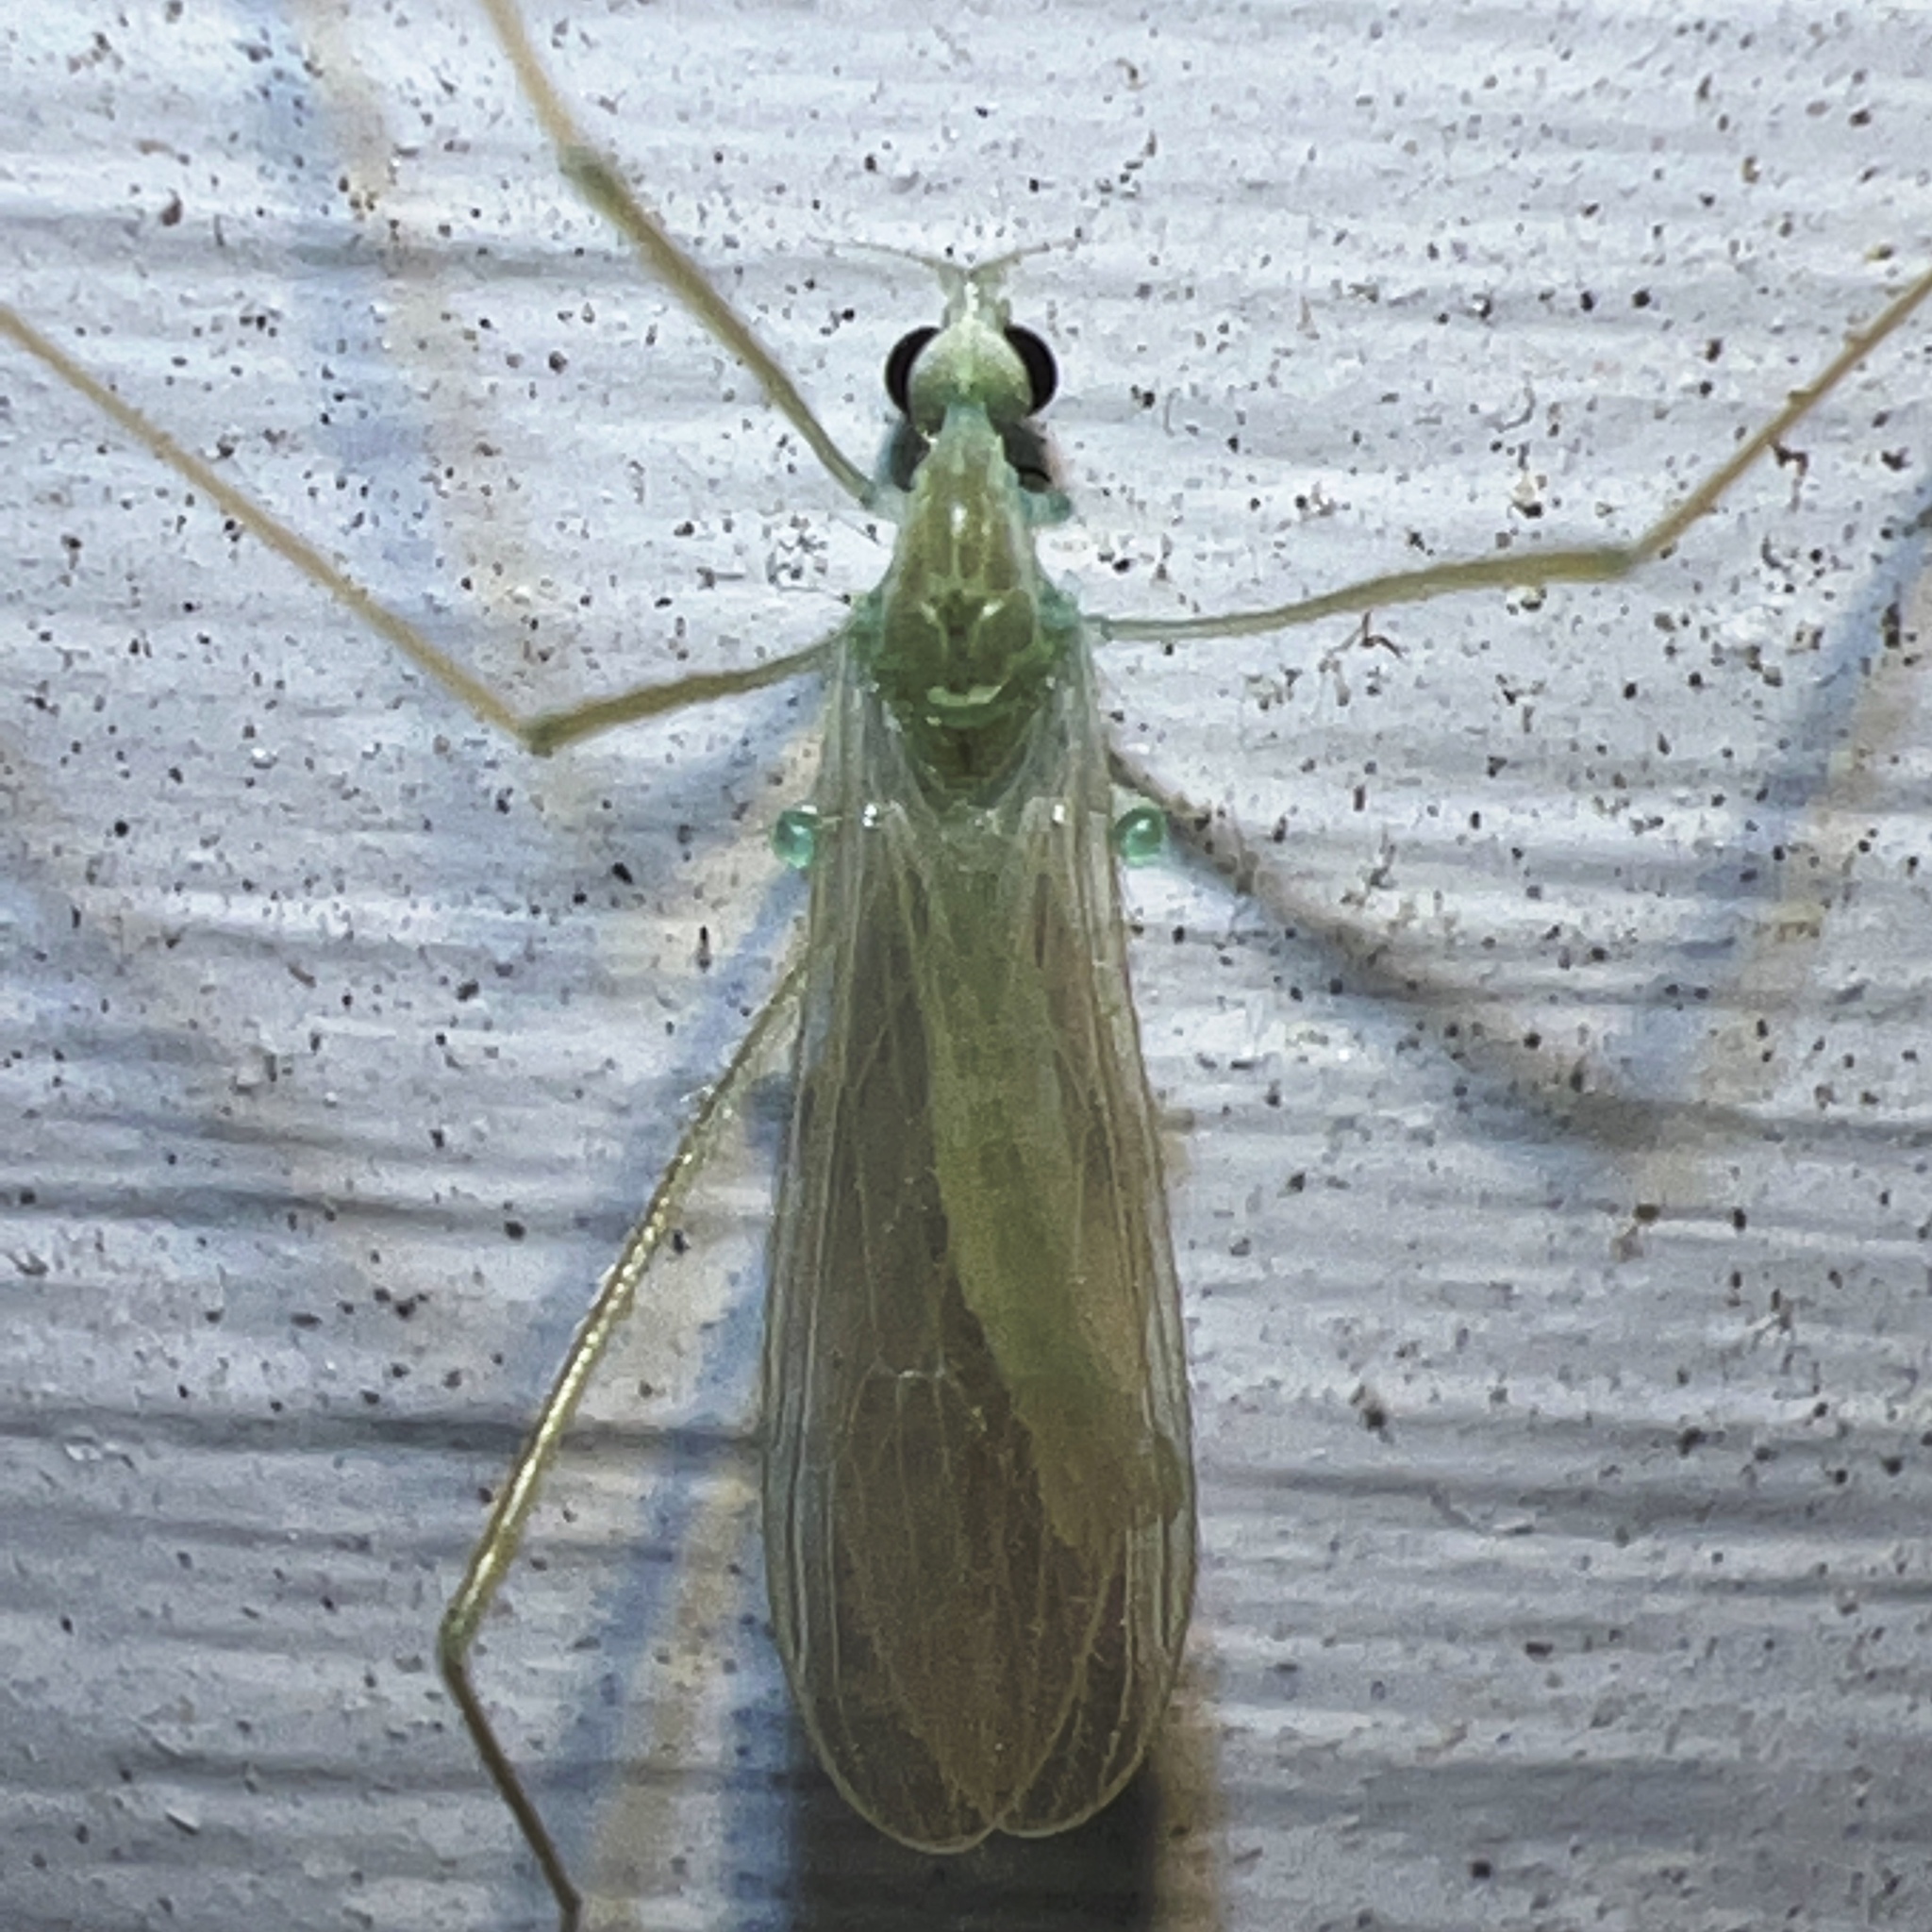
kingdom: Animalia
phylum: Arthropoda
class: Insecta
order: Diptera
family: Limoniidae
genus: Erioptera
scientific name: Erioptera
